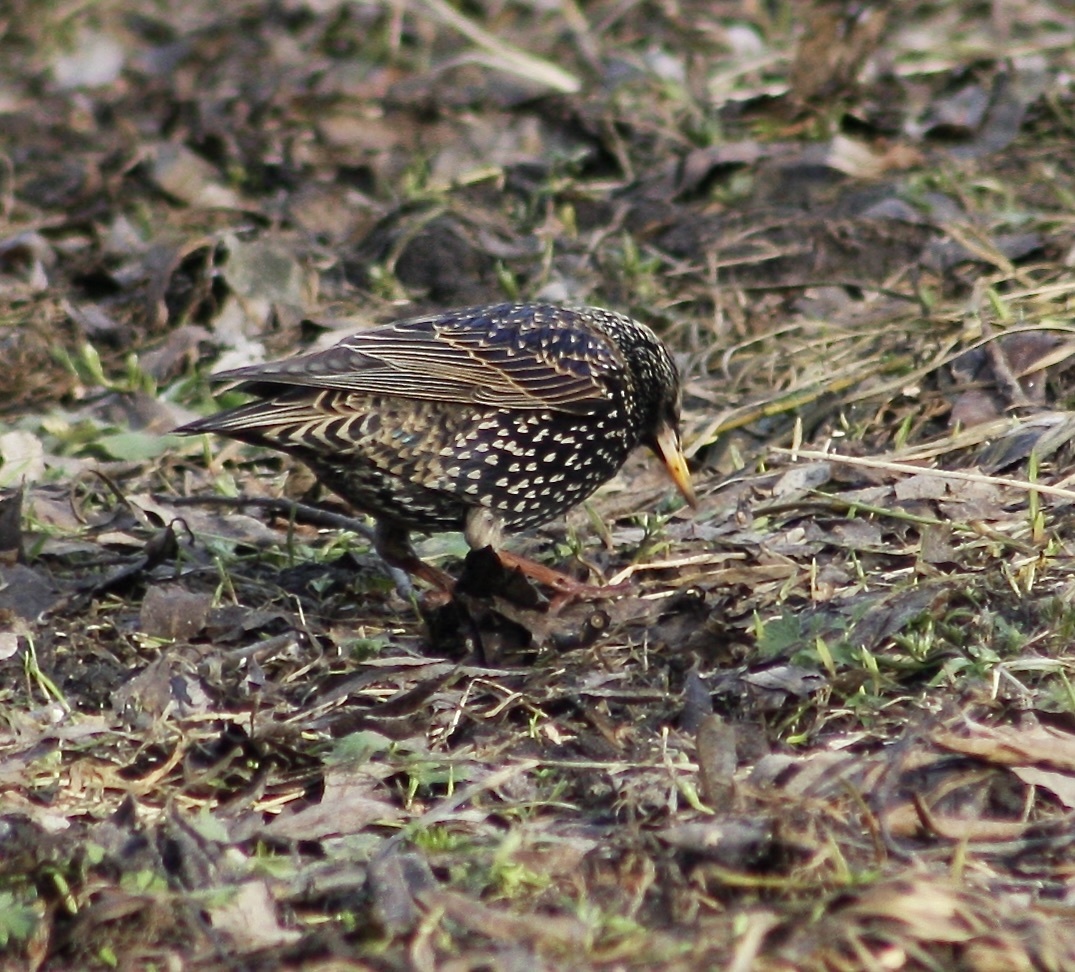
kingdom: Animalia
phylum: Chordata
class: Aves
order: Passeriformes
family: Sturnidae
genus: Sturnus
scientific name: Sturnus vulgaris
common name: Common starling
